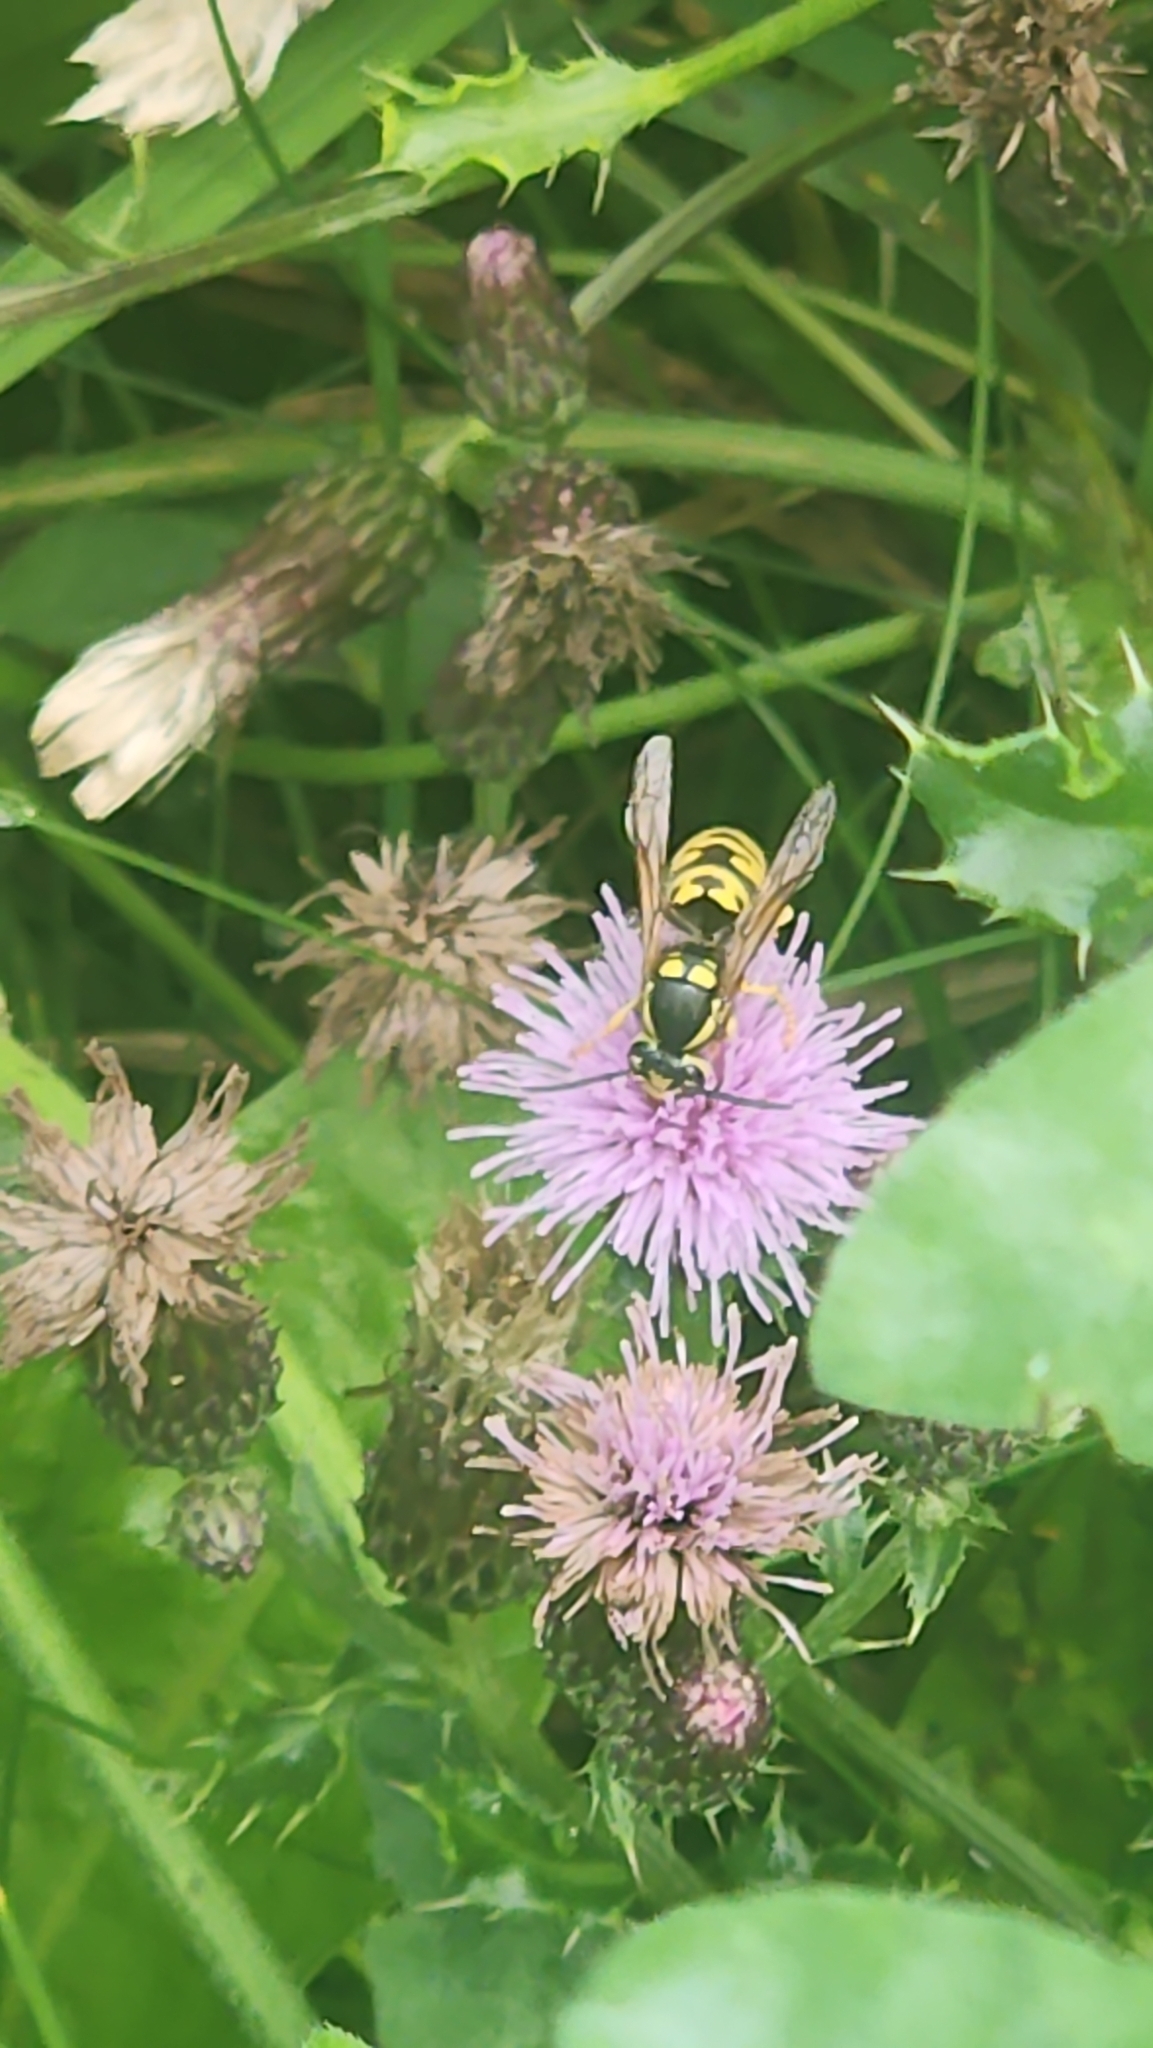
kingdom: Animalia
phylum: Arthropoda
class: Insecta
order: Hymenoptera
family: Vespidae
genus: Vespula
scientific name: Vespula atropilosa
